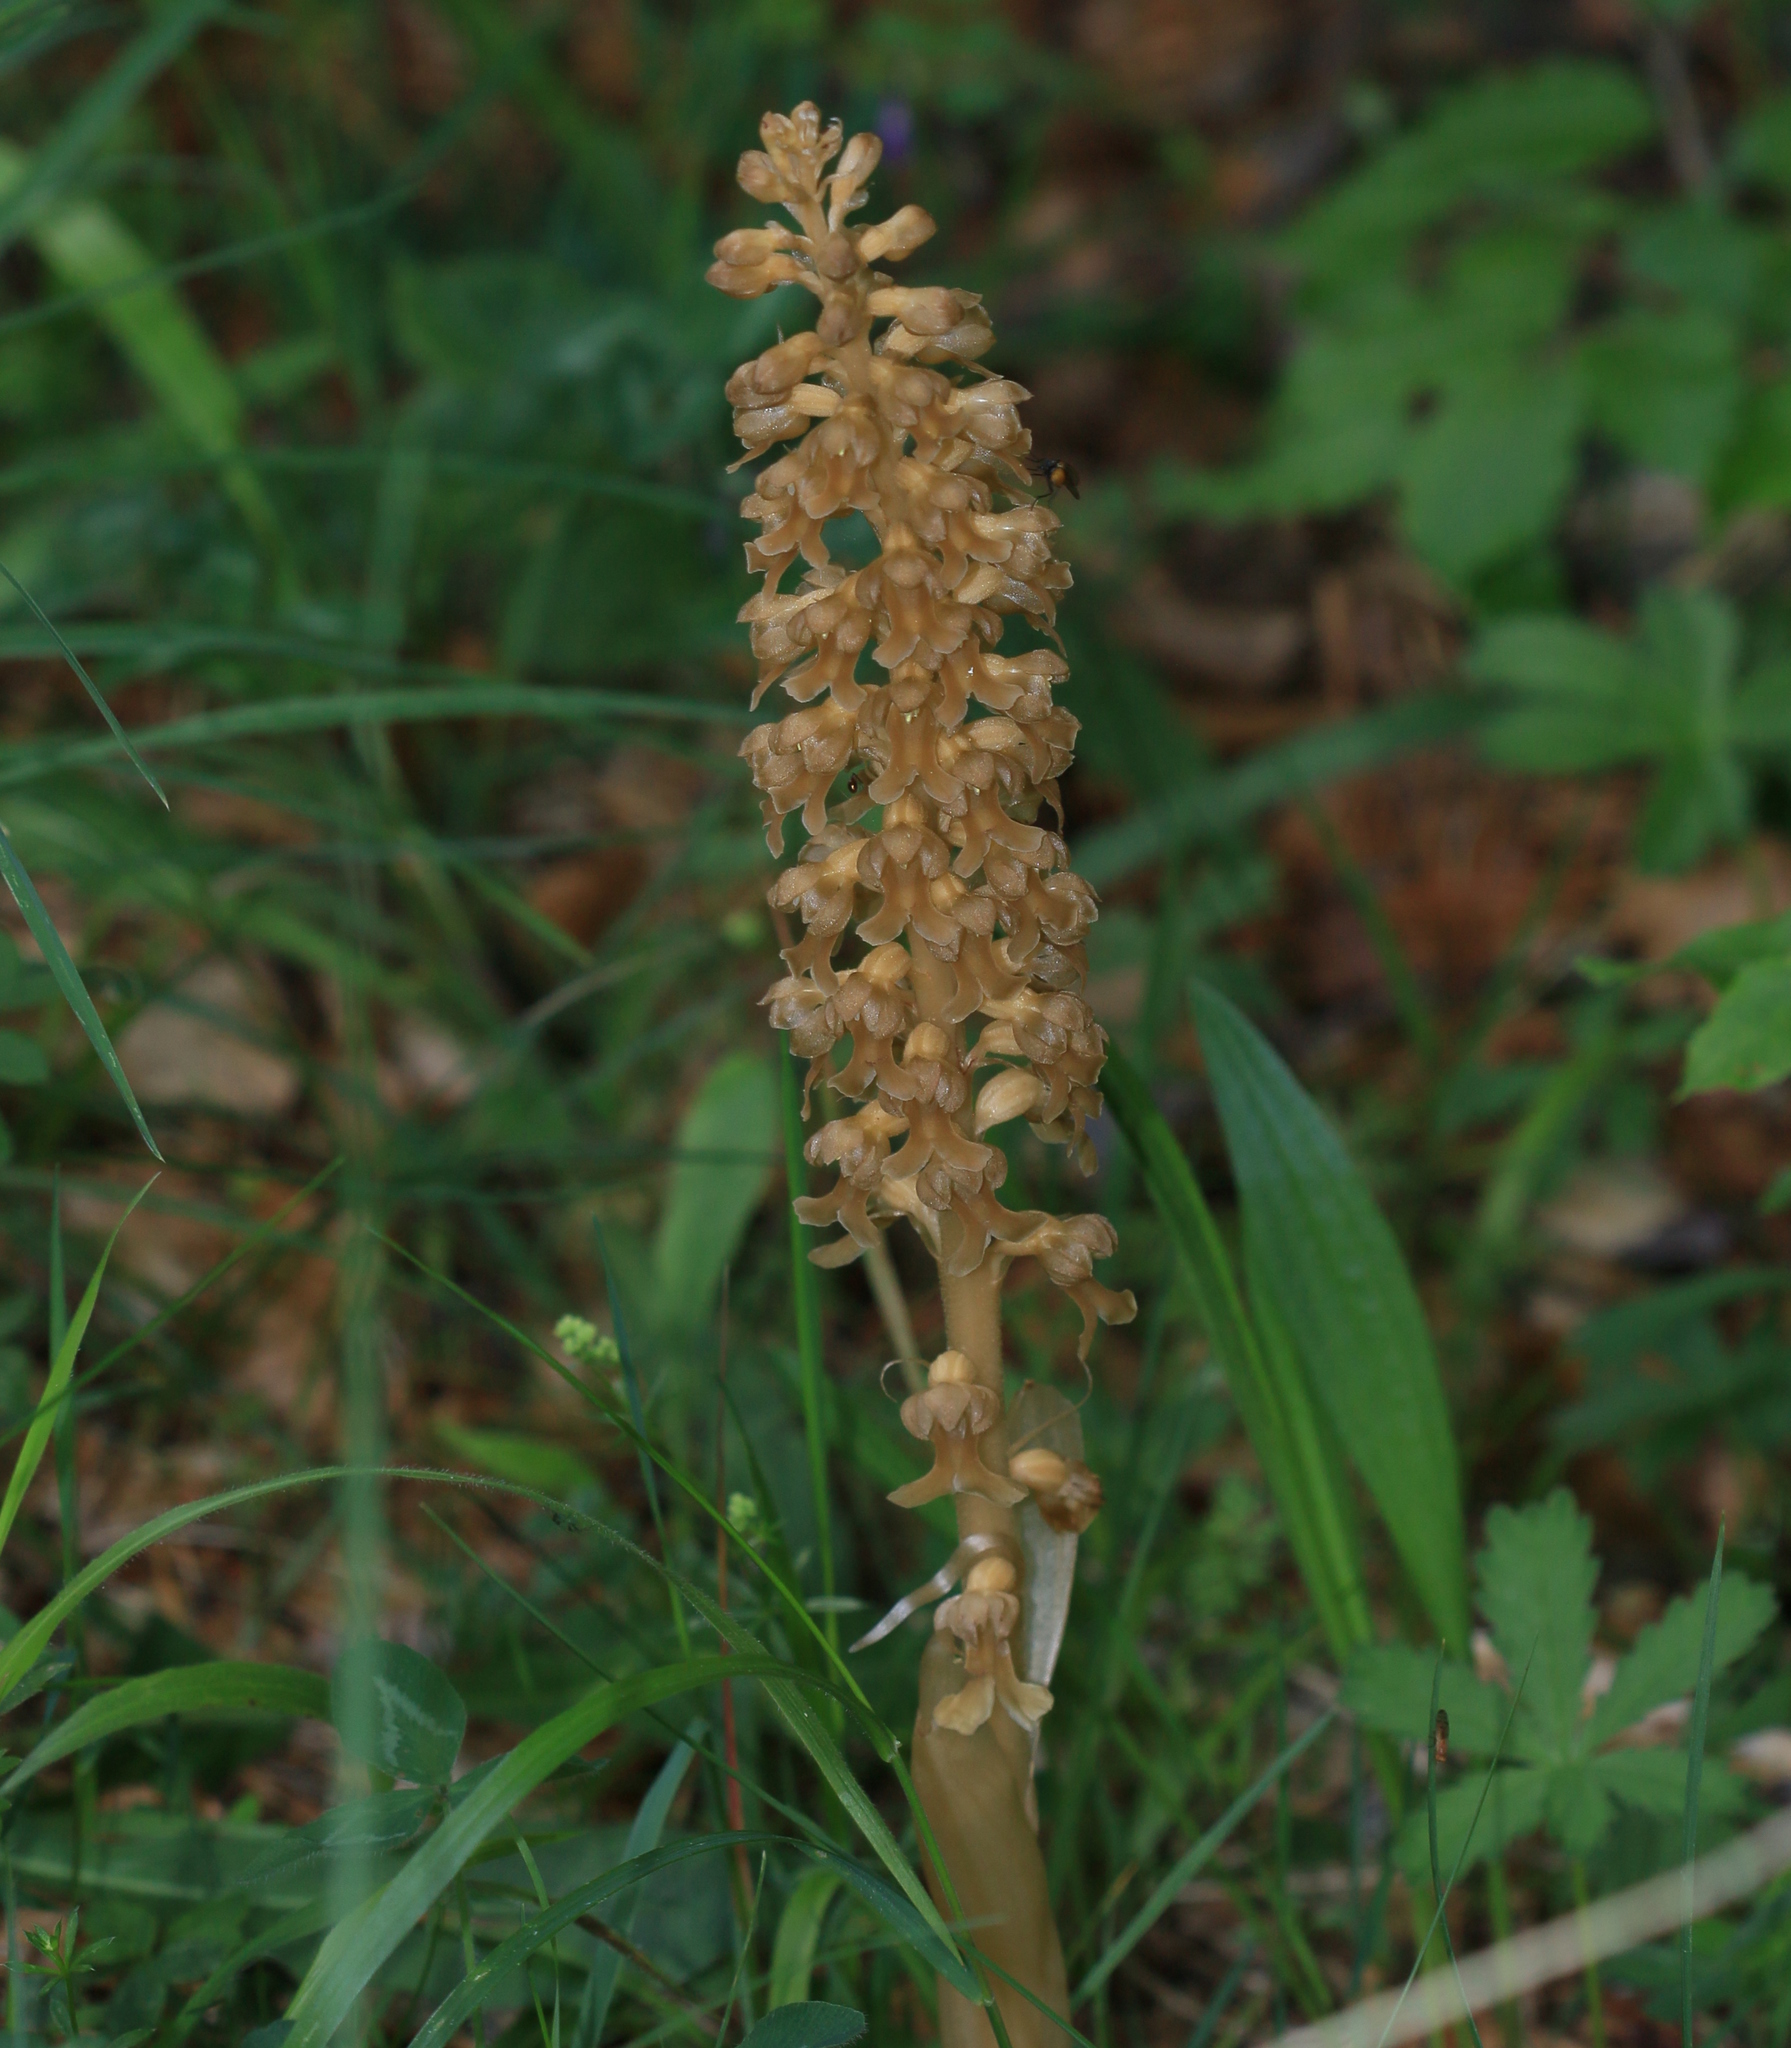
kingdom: Plantae
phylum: Tracheophyta
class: Liliopsida
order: Asparagales
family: Orchidaceae
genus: Neottia
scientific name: Neottia nidus-avis
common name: Bird's-nest orchid
